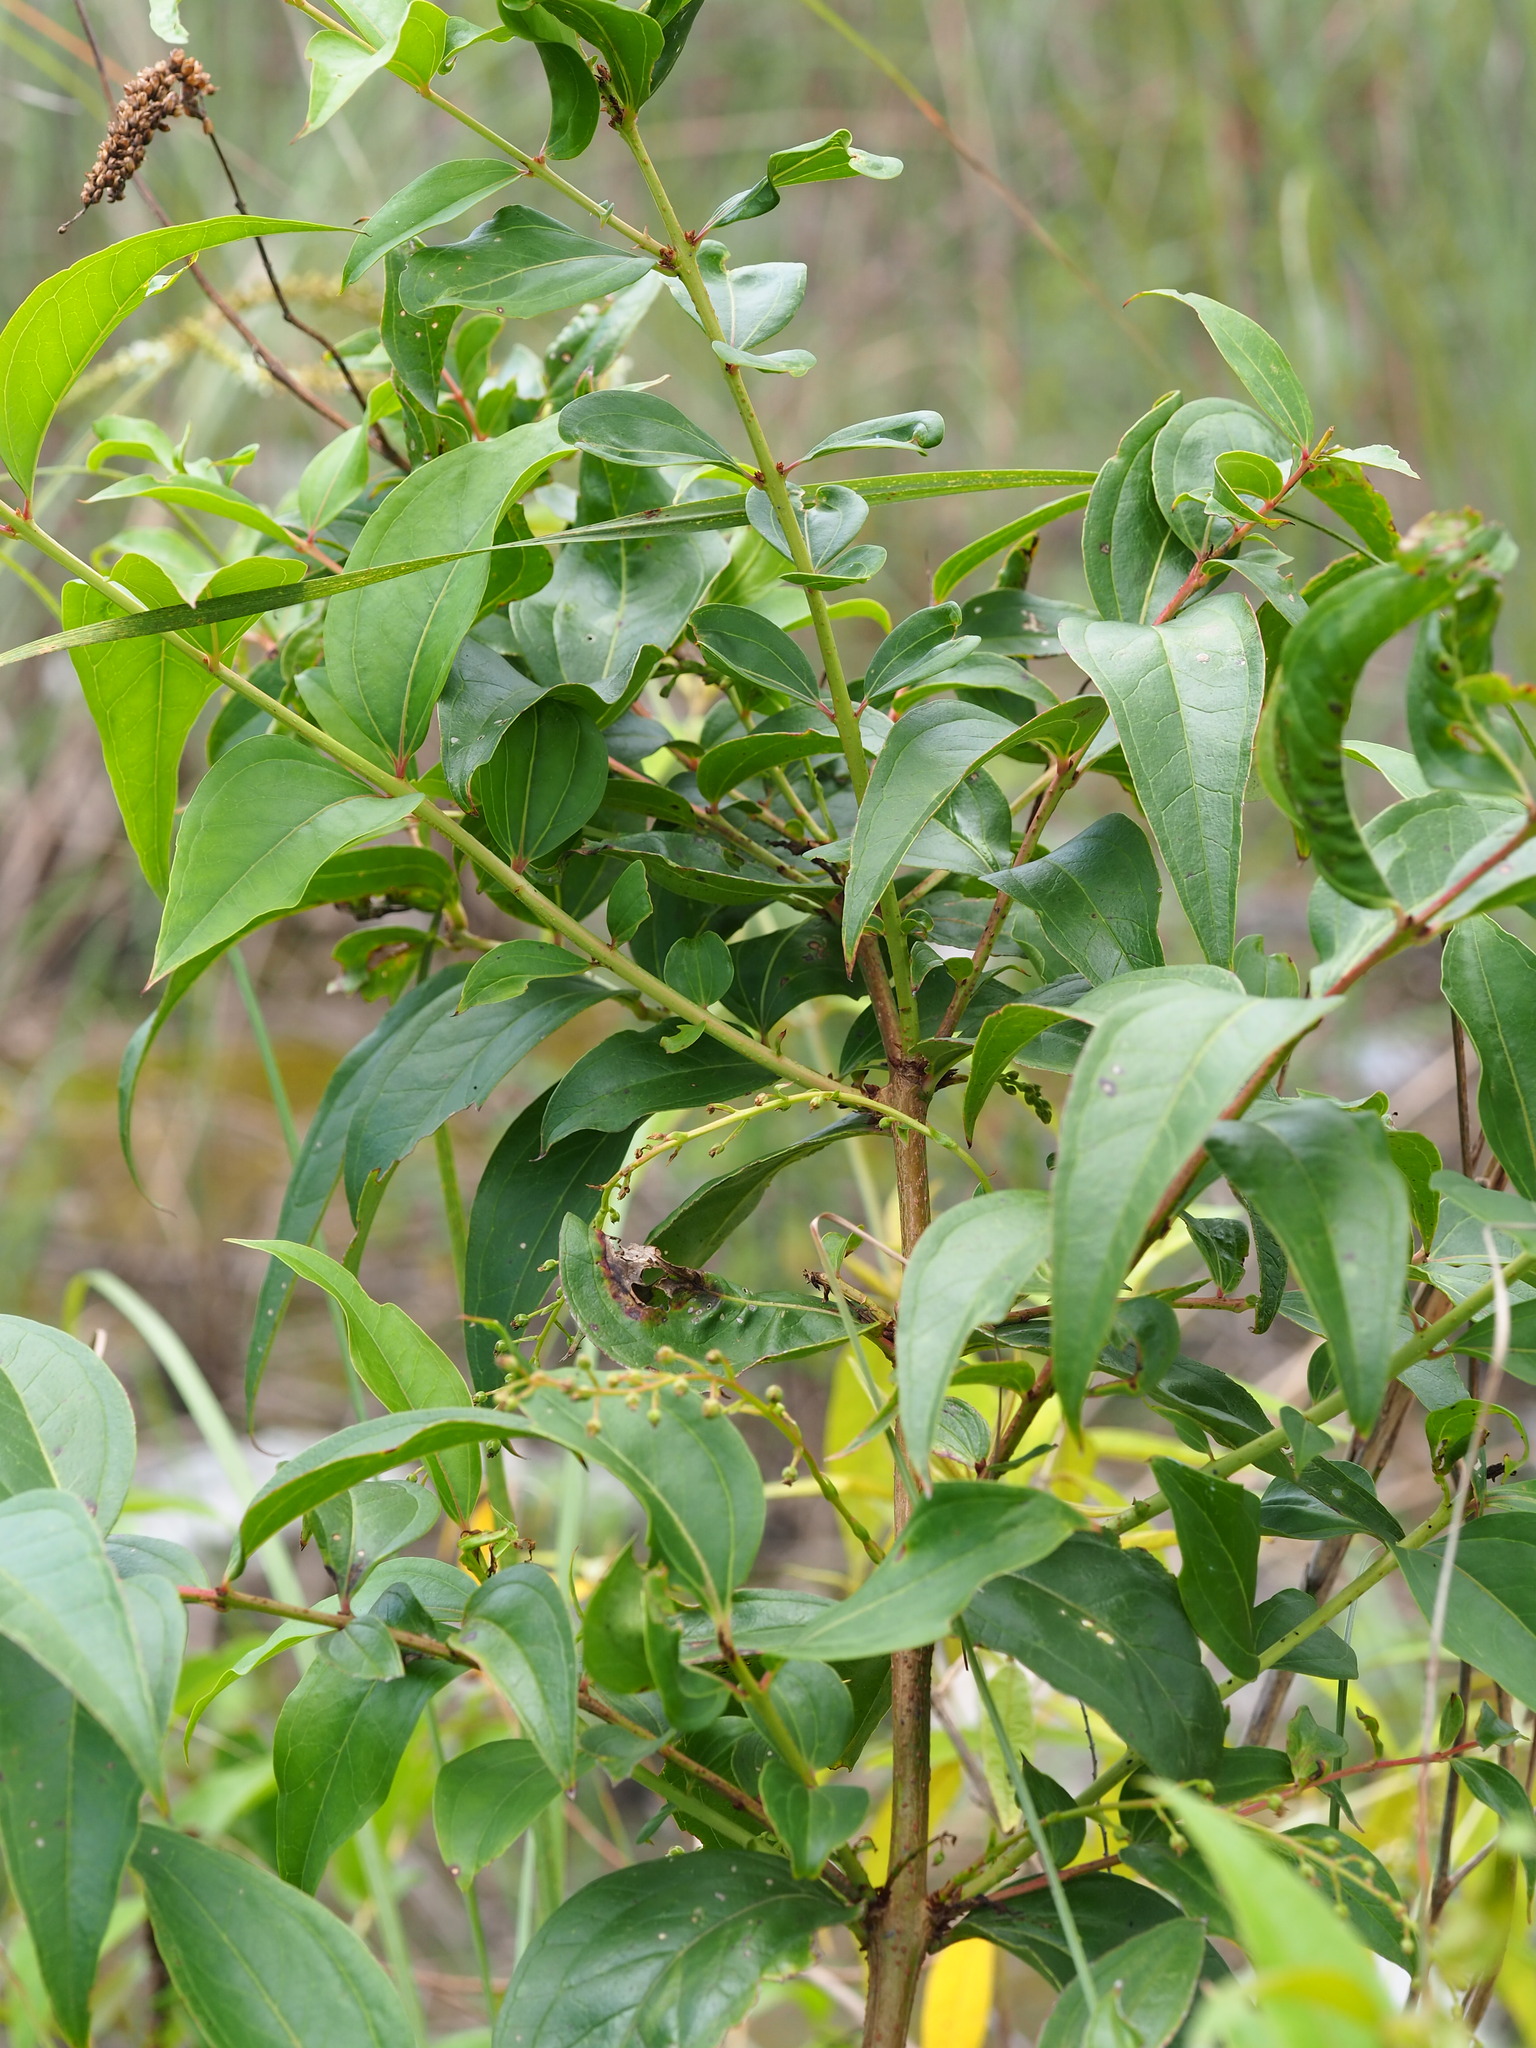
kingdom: Plantae
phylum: Tracheophyta
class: Magnoliopsida
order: Cucurbitales
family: Coriariaceae
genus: Coriaria
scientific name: Coriaria japonica
